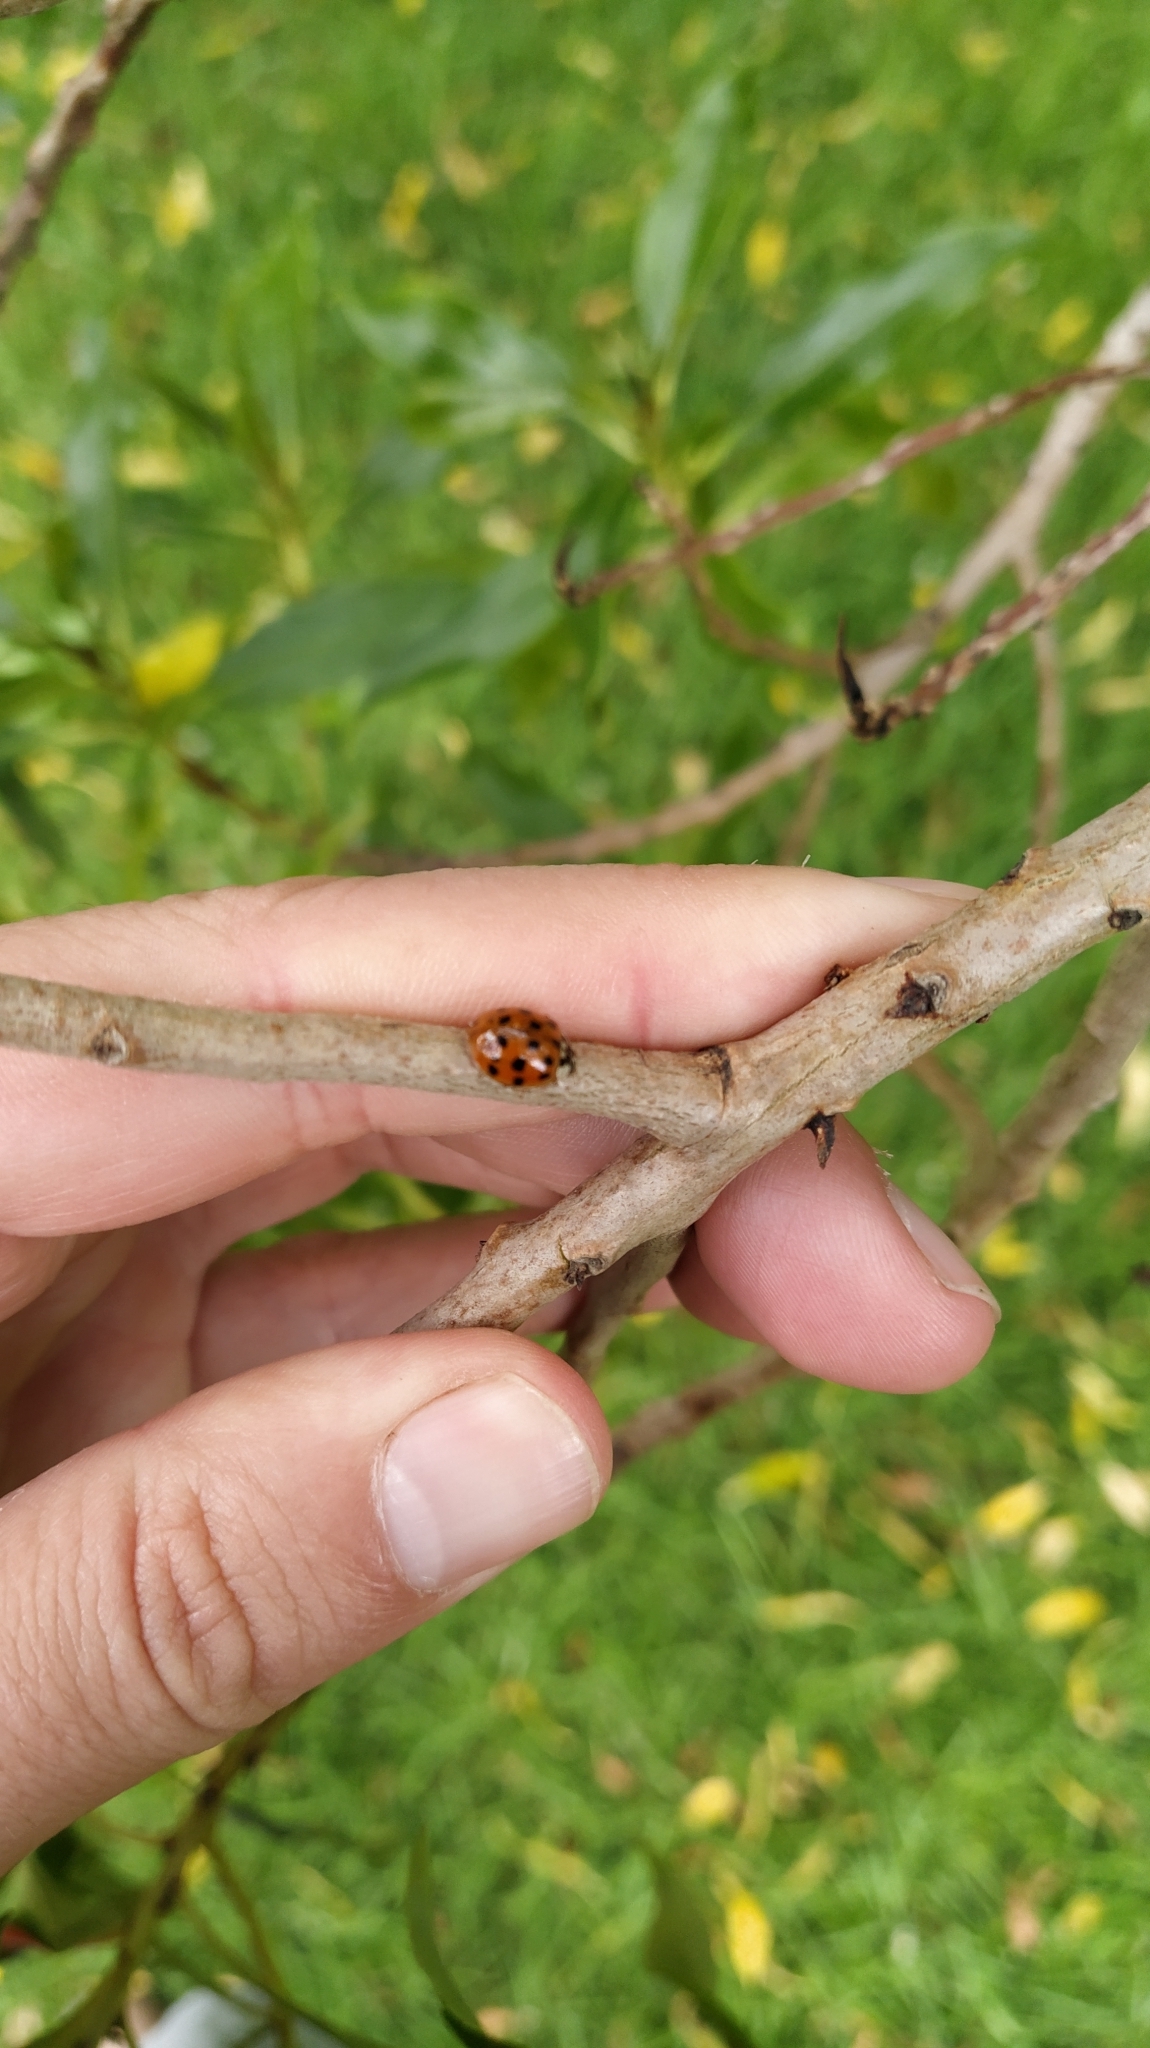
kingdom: Animalia
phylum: Arthropoda
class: Insecta
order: Coleoptera
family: Coccinellidae
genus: Harmonia
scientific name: Harmonia axyridis
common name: Harlequin ladybird
